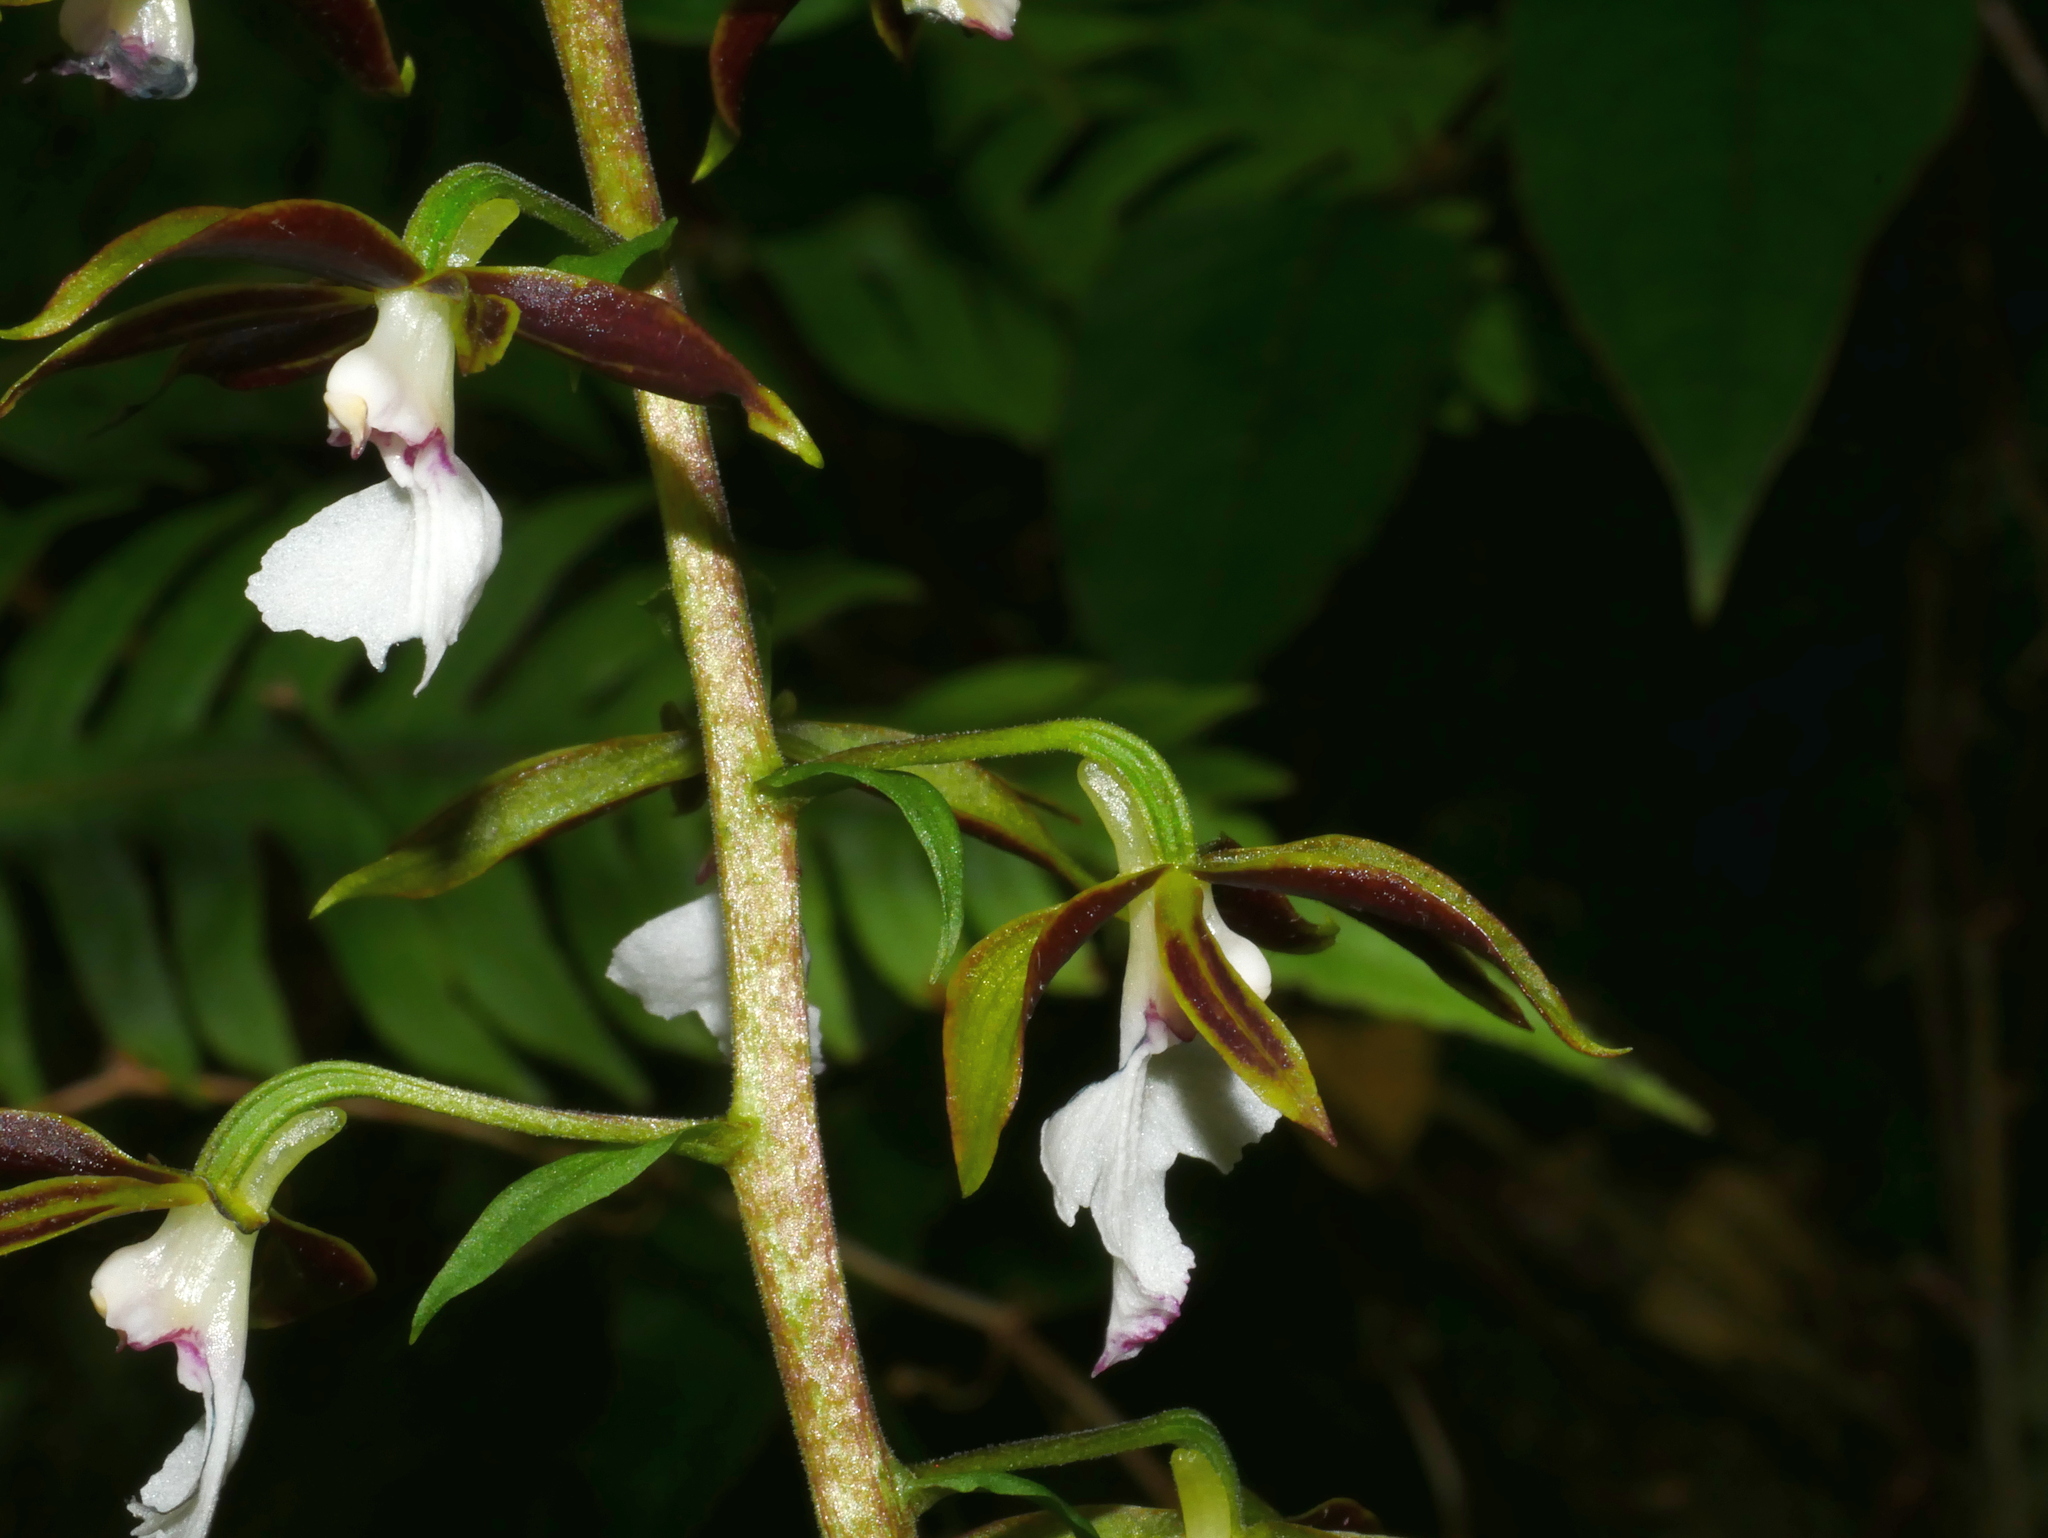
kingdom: Plantae
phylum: Tracheophyta
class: Liliopsida
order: Asparagales
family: Orchidaceae
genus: Calanthe
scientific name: Calanthe arcuata
